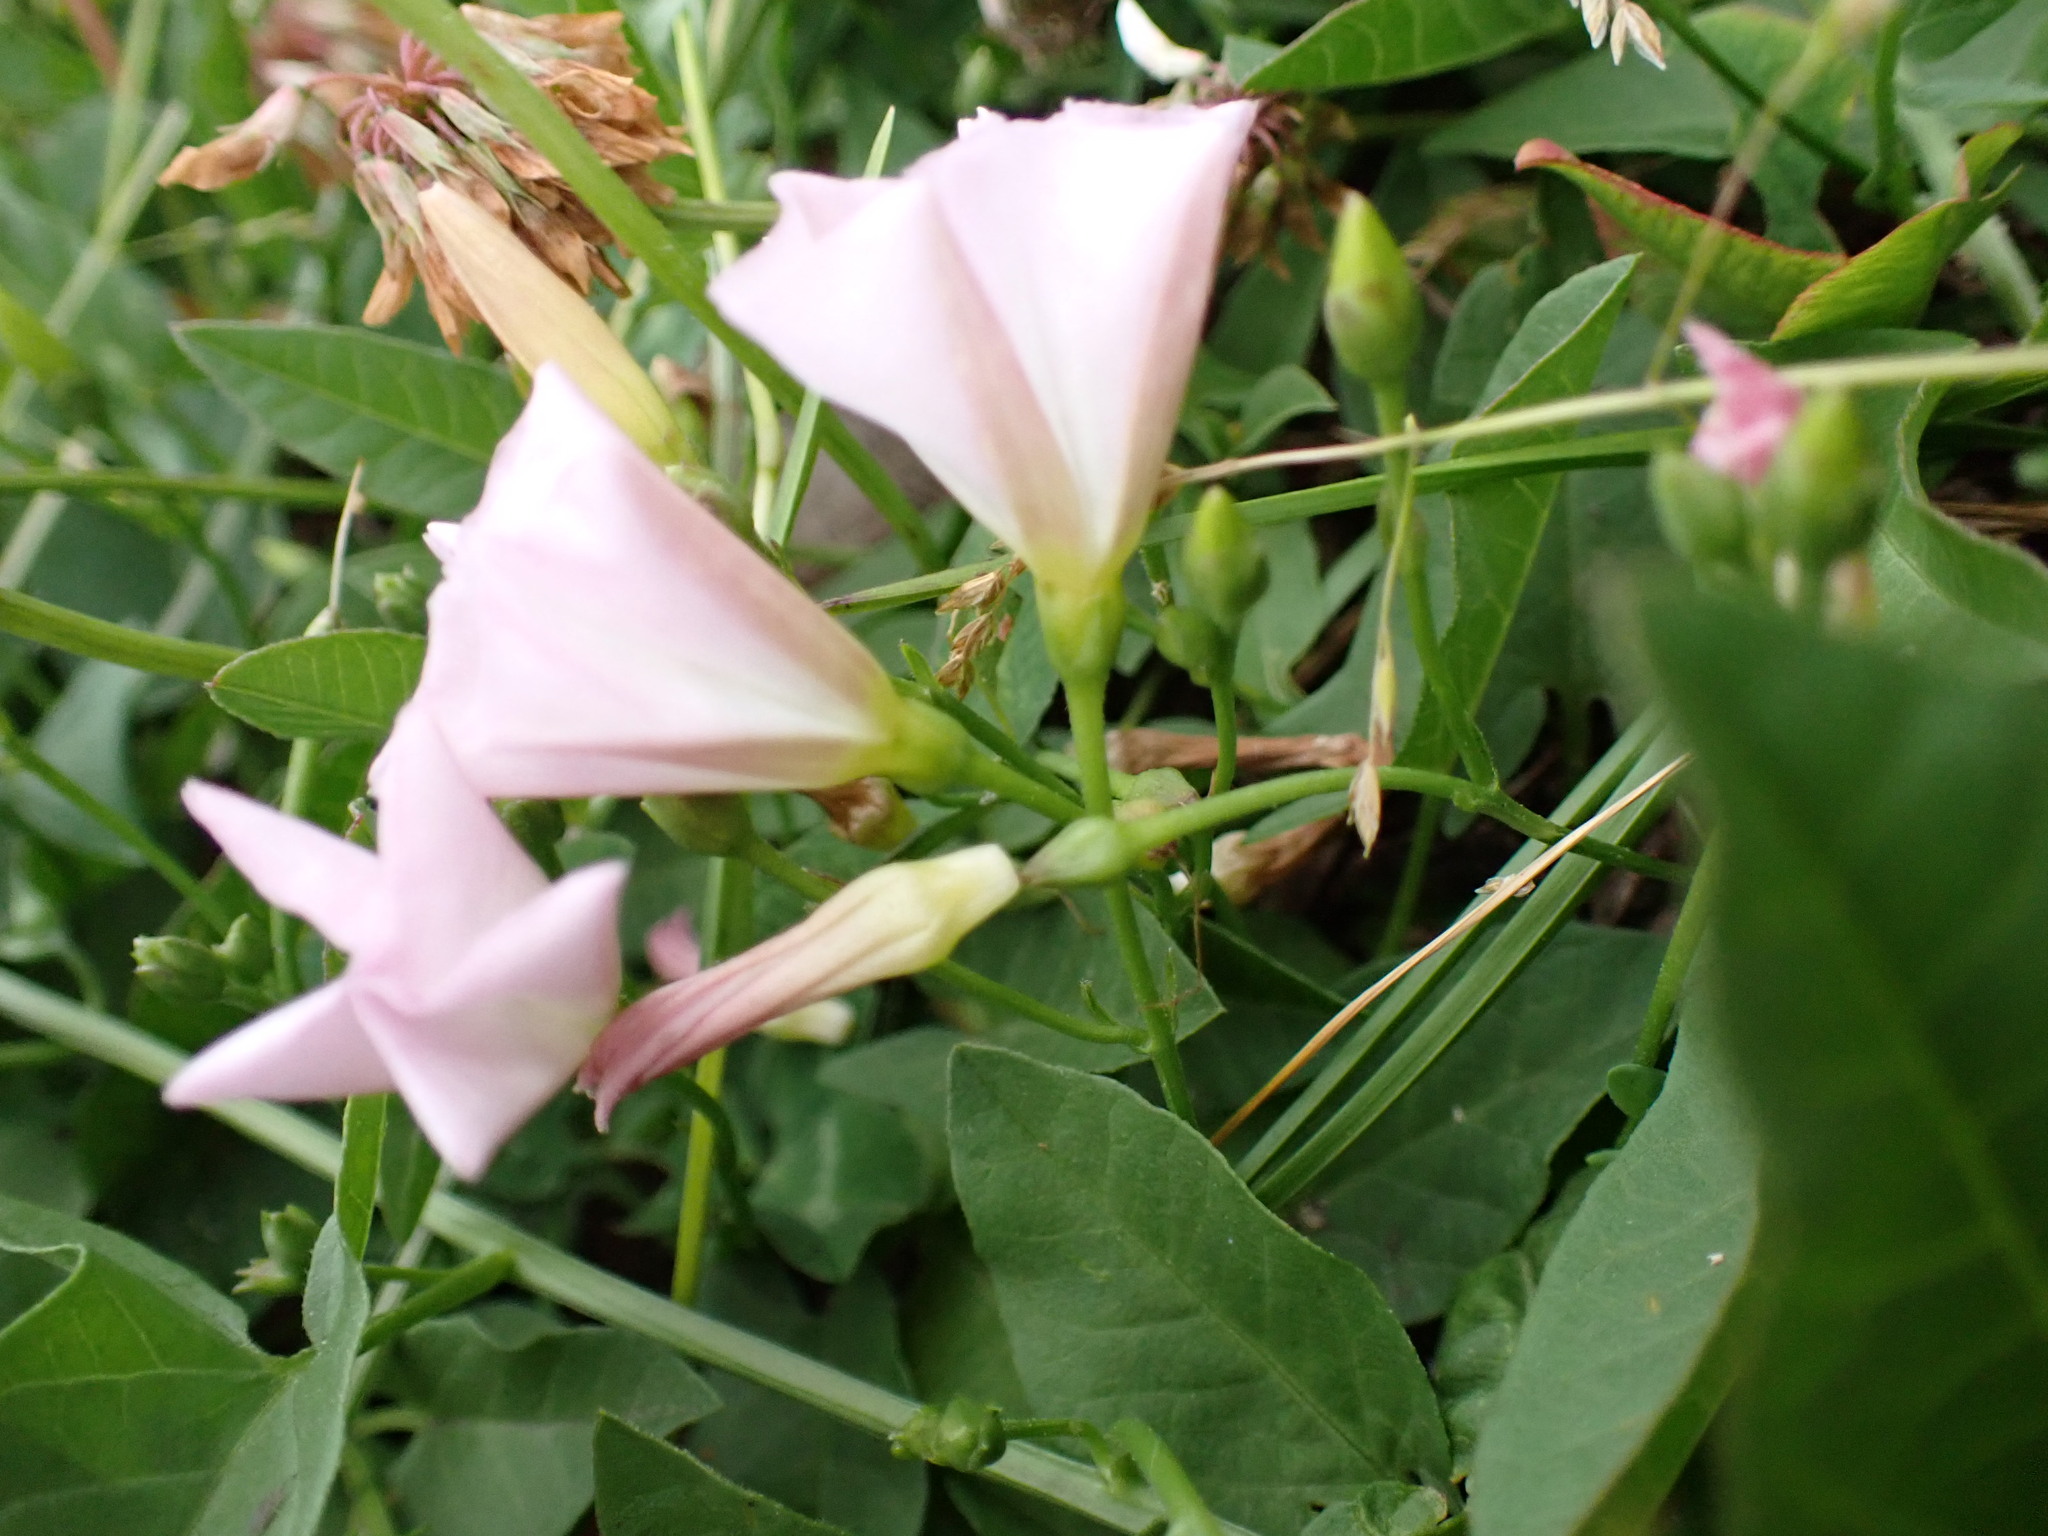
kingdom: Plantae
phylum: Tracheophyta
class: Magnoliopsida
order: Solanales
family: Convolvulaceae
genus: Convolvulus
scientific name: Convolvulus arvensis
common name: Field bindweed
